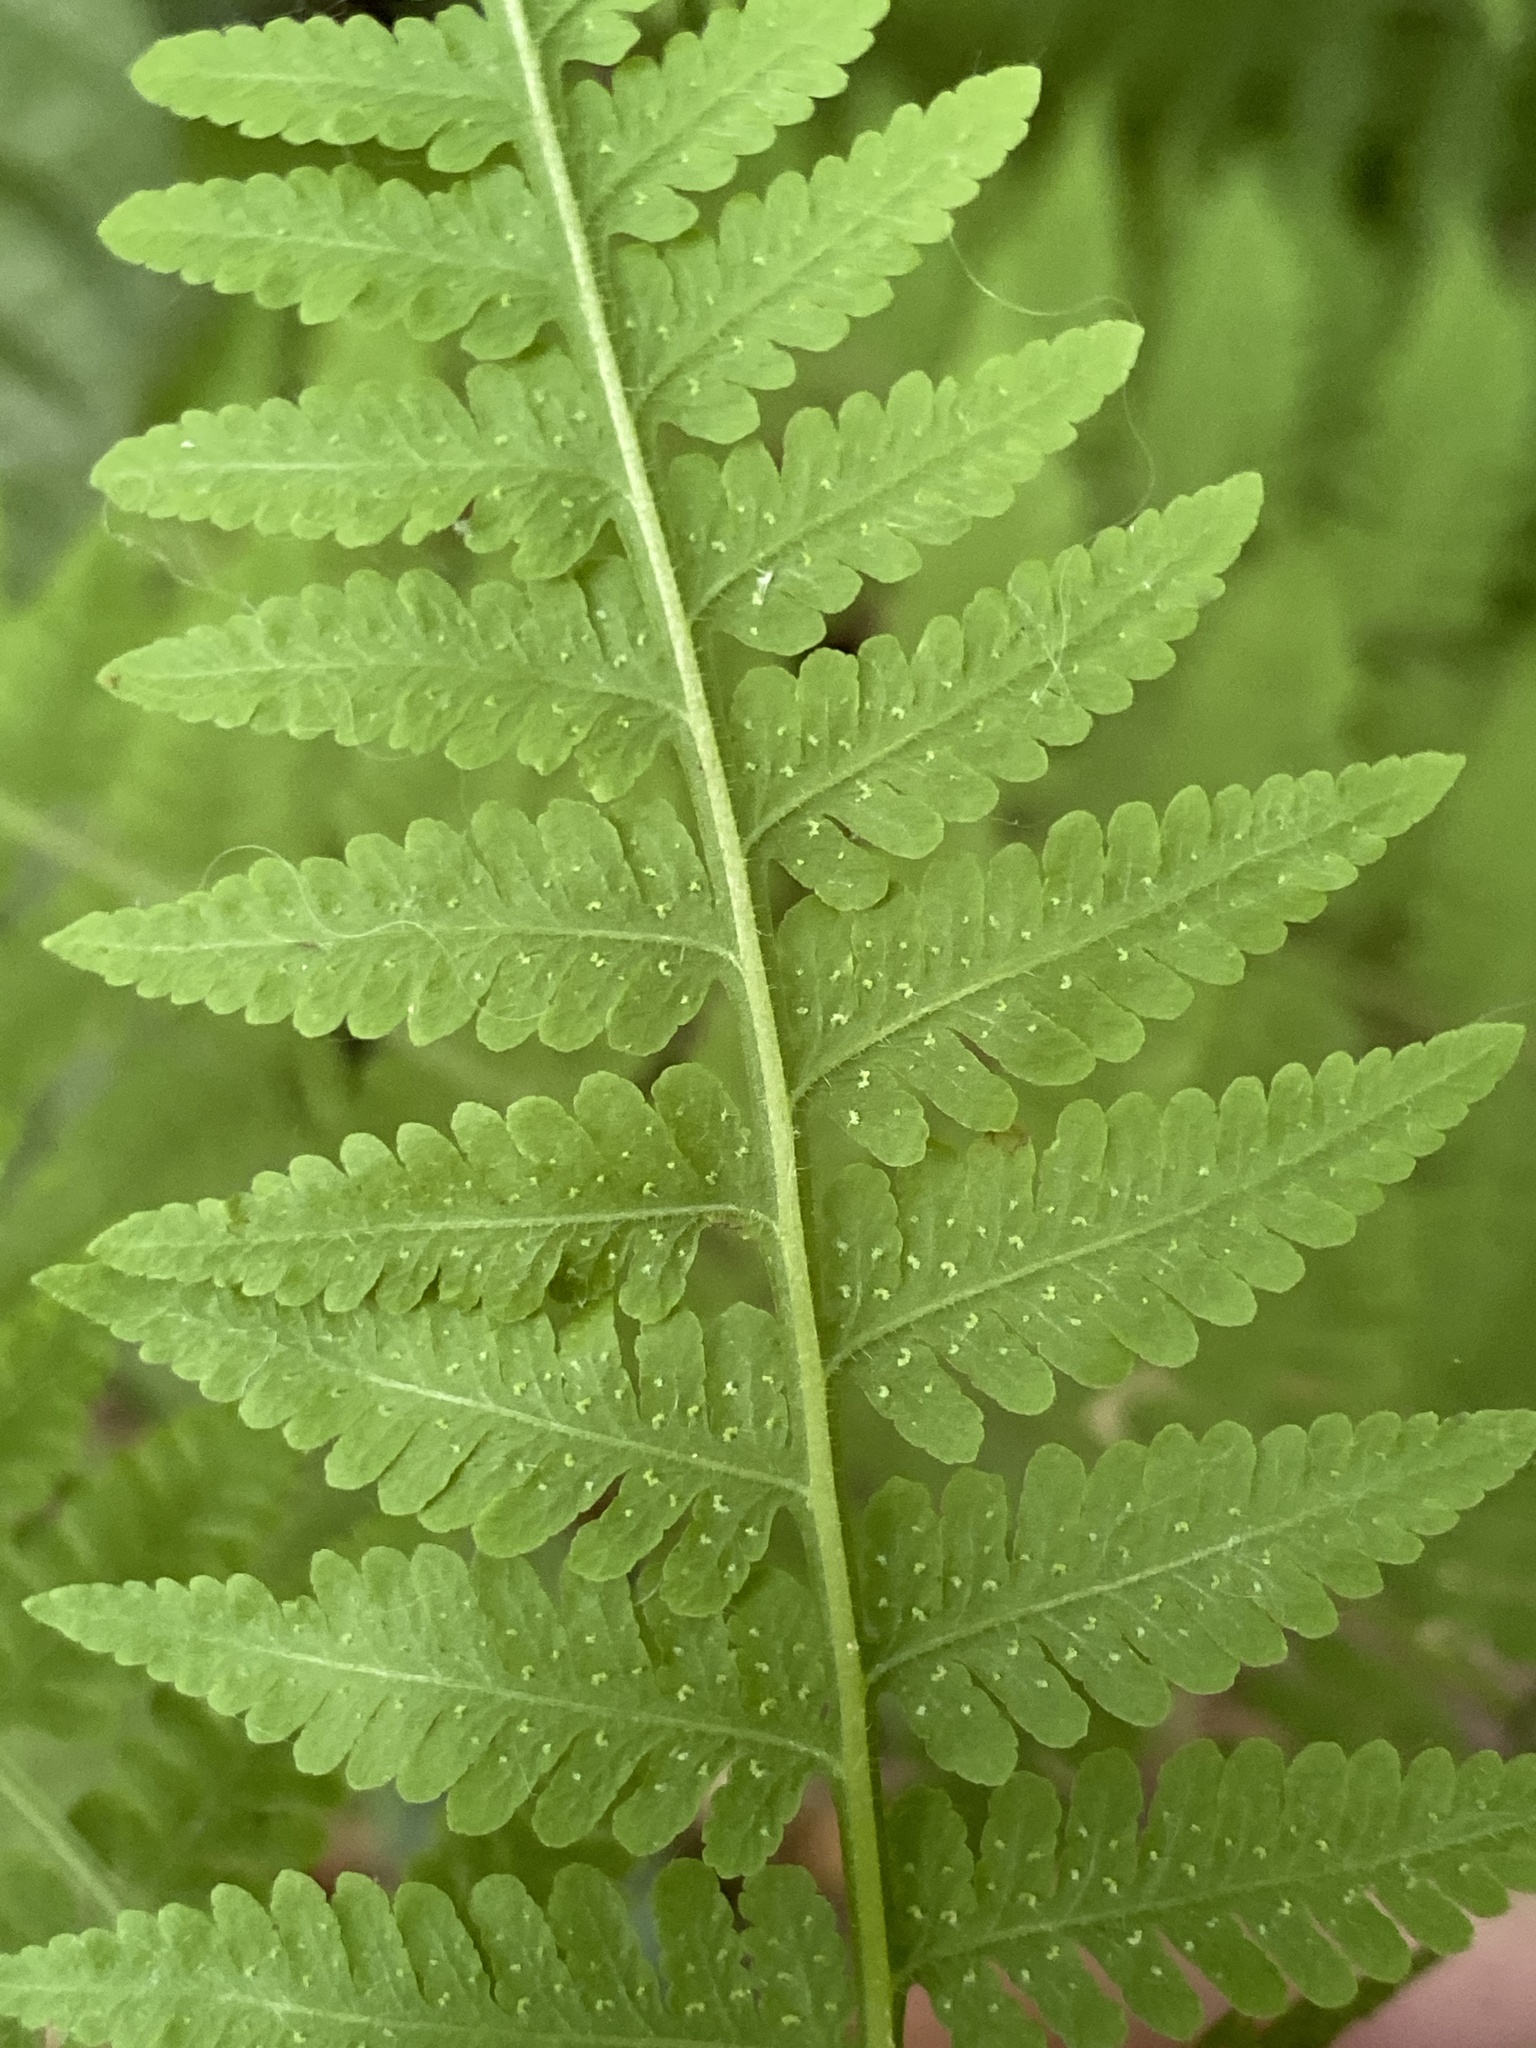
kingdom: Plantae
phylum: Tracheophyta
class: Polypodiopsida
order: Polypodiales
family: Thelypteridaceae
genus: Macrothelypteris
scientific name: Macrothelypteris torresiana
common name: Swordfern
